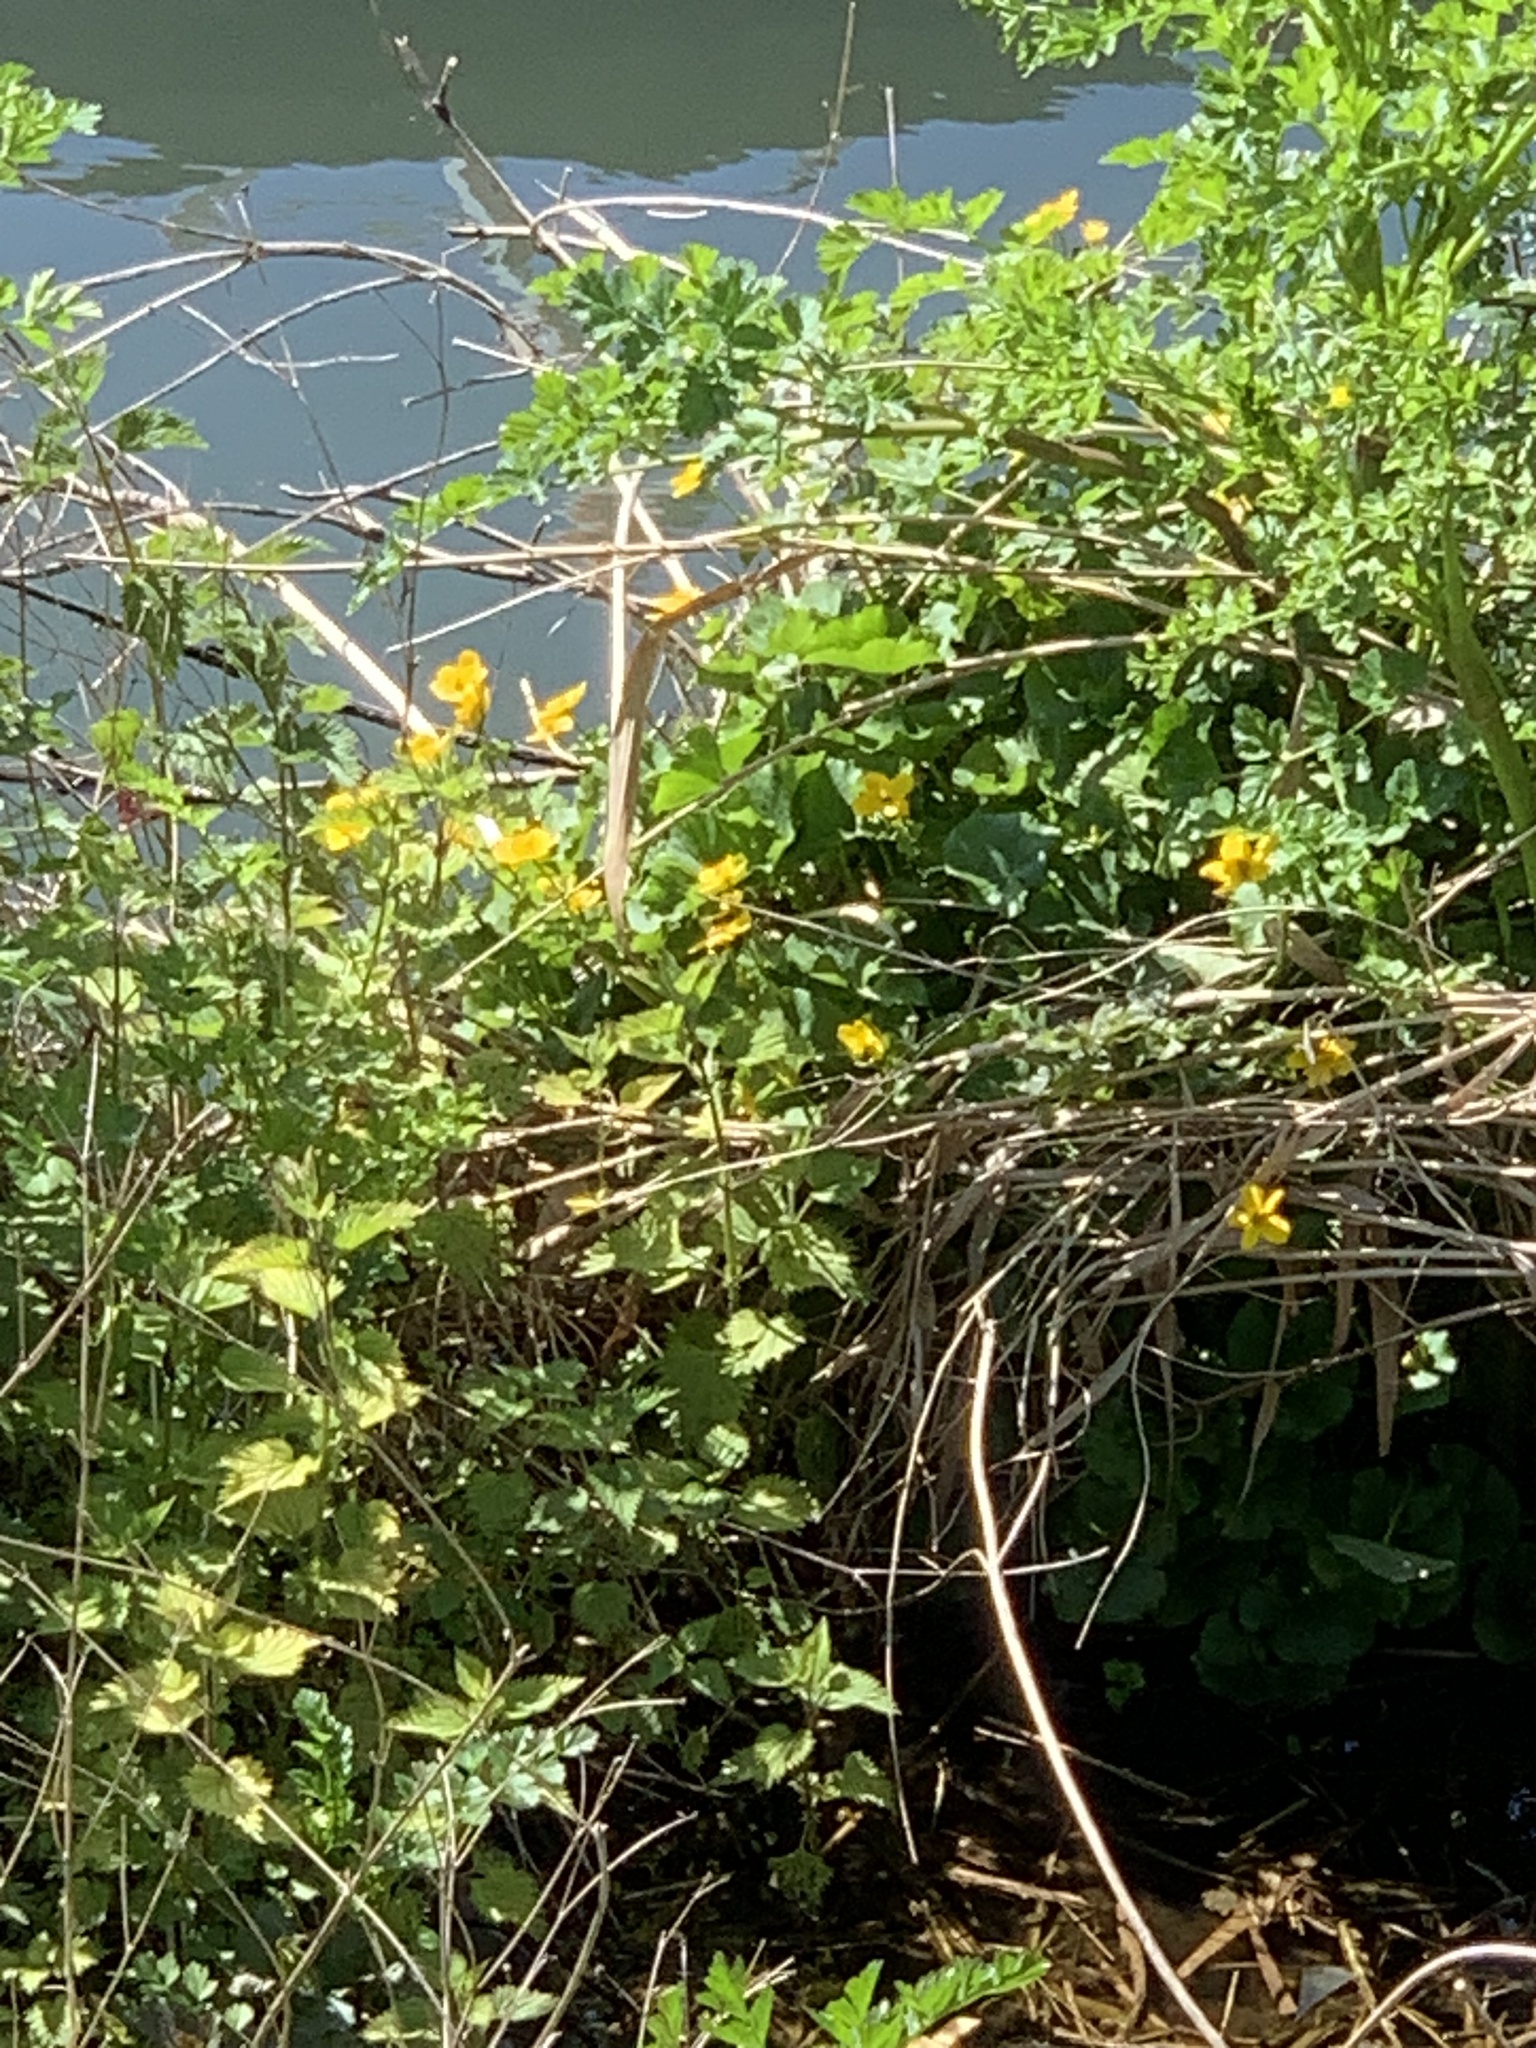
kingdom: Plantae
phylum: Tracheophyta
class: Magnoliopsida
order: Ranunculales
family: Ranunculaceae
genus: Caltha
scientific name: Caltha palustris
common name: Marsh marigold
